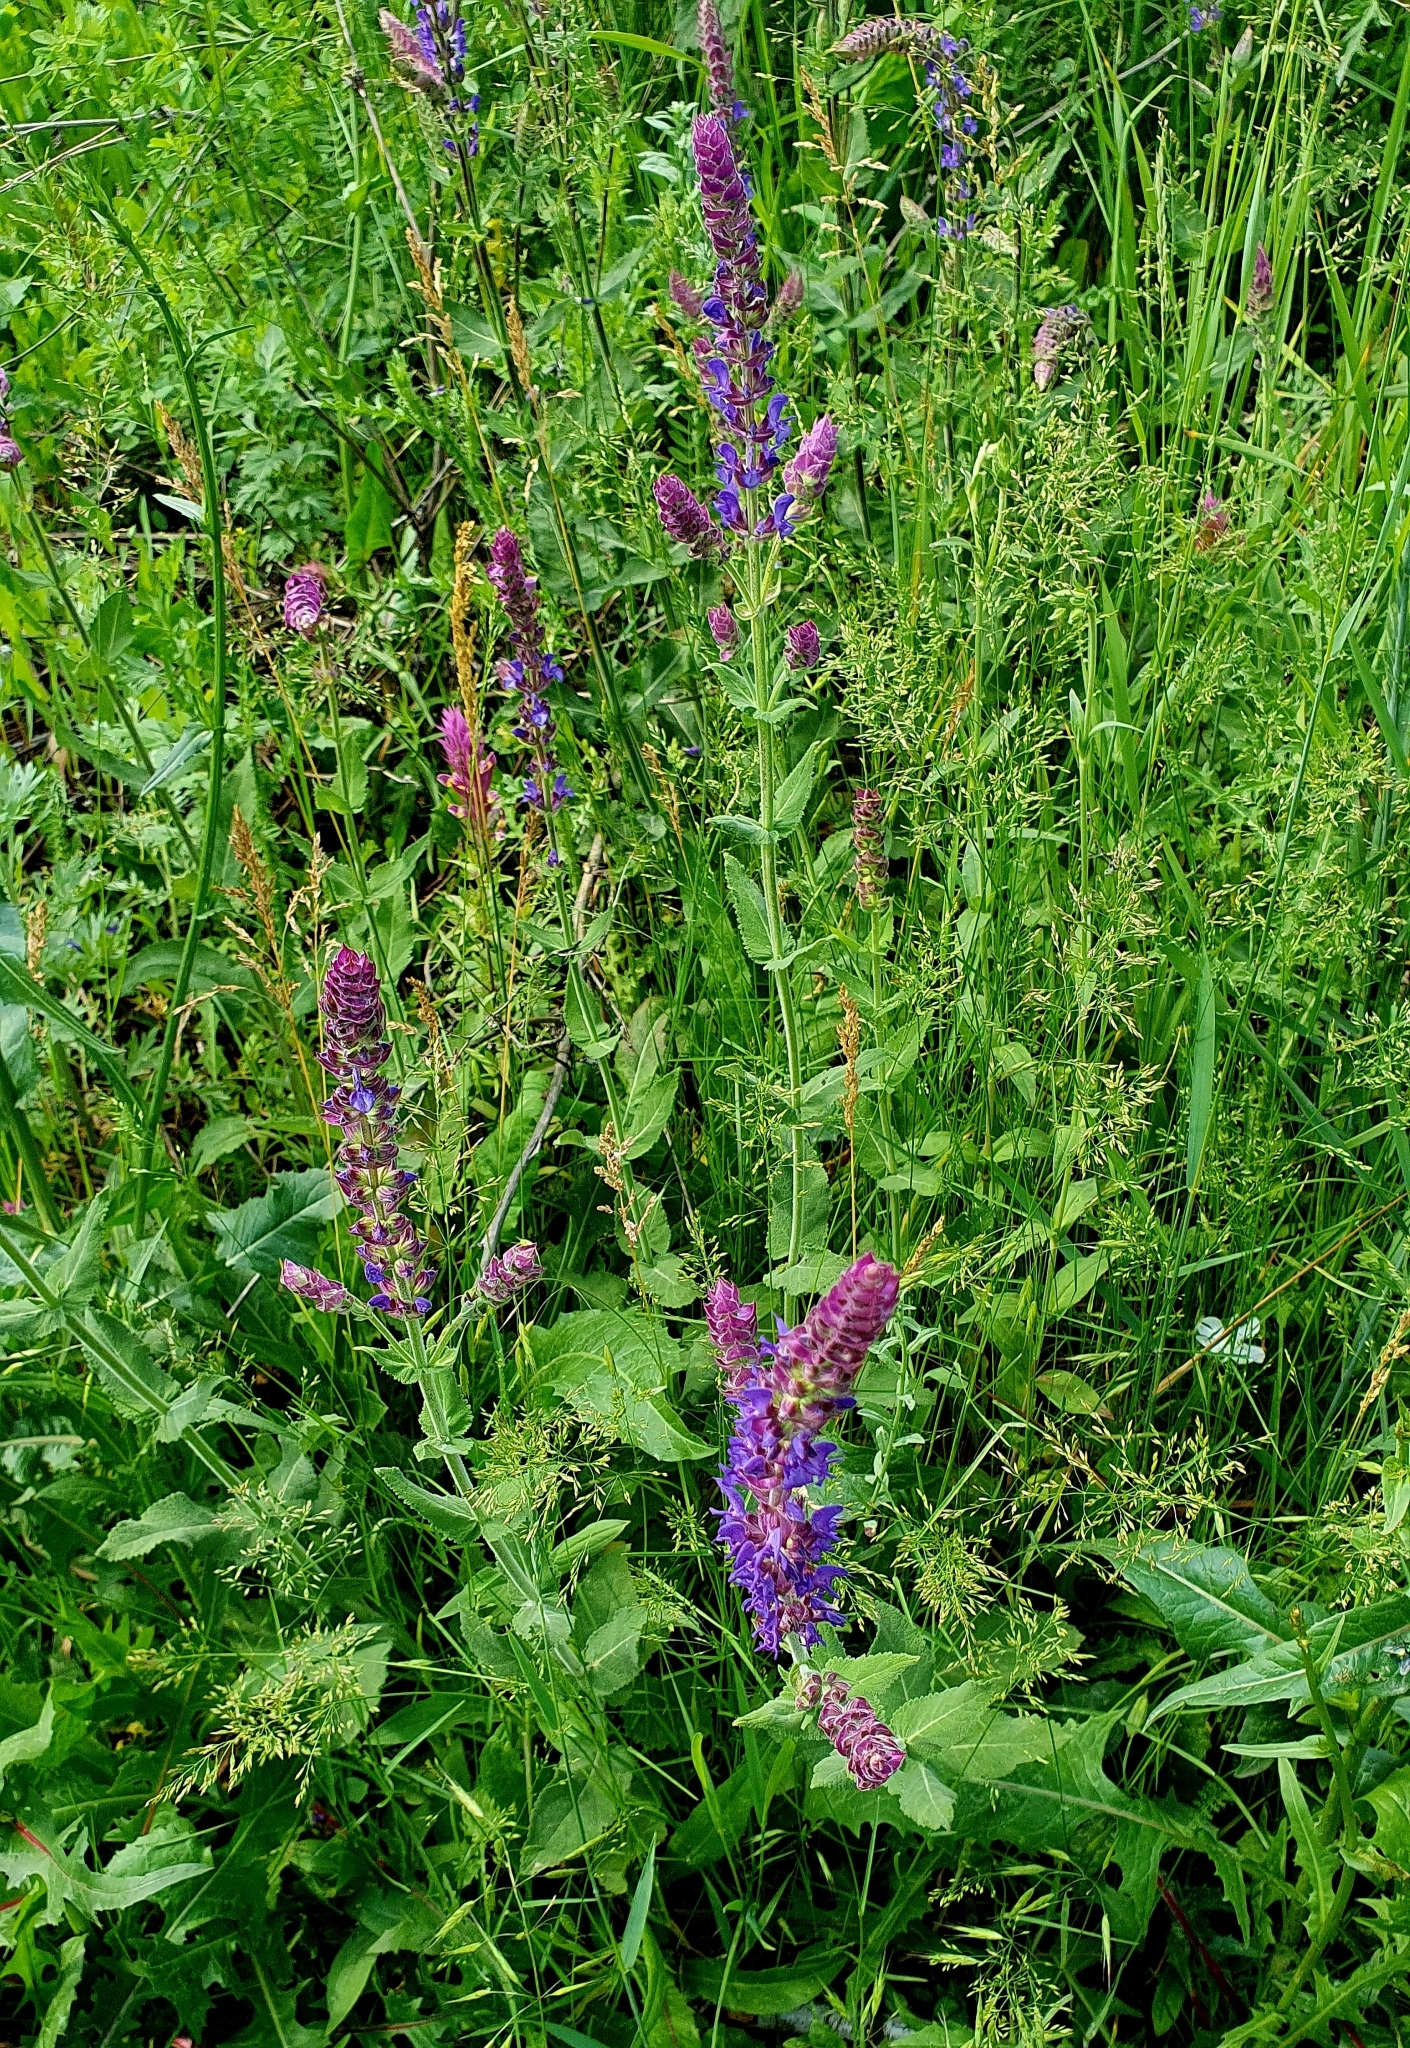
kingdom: Plantae
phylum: Tracheophyta
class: Magnoliopsida
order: Lamiales
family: Lamiaceae
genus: Salvia
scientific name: Salvia nemorosa
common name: Balkan clary
